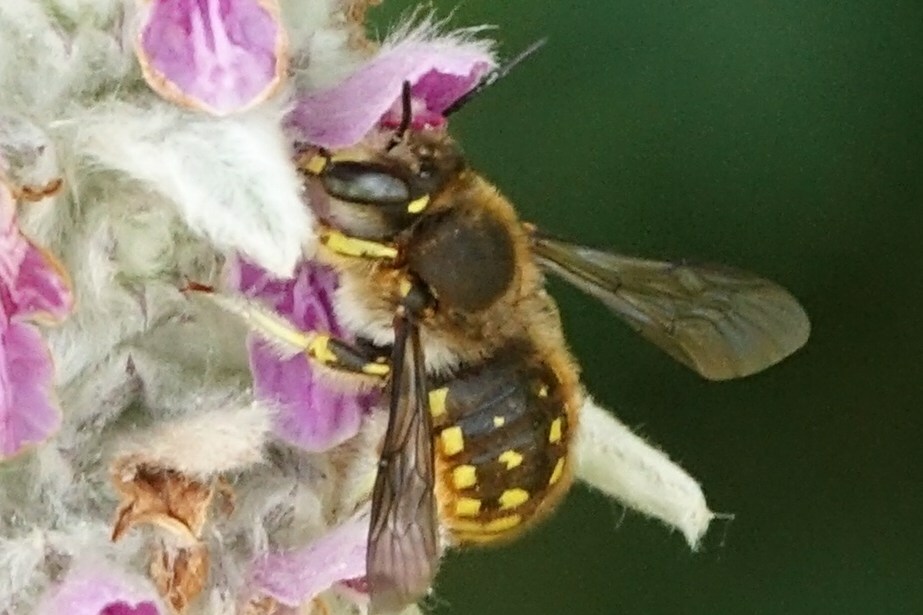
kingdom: Animalia
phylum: Arthropoda
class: Insecta
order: Hymenoptera
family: Megachilidae
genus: Anthidium
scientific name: Anthidium manicatum
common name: Wool carder bee
